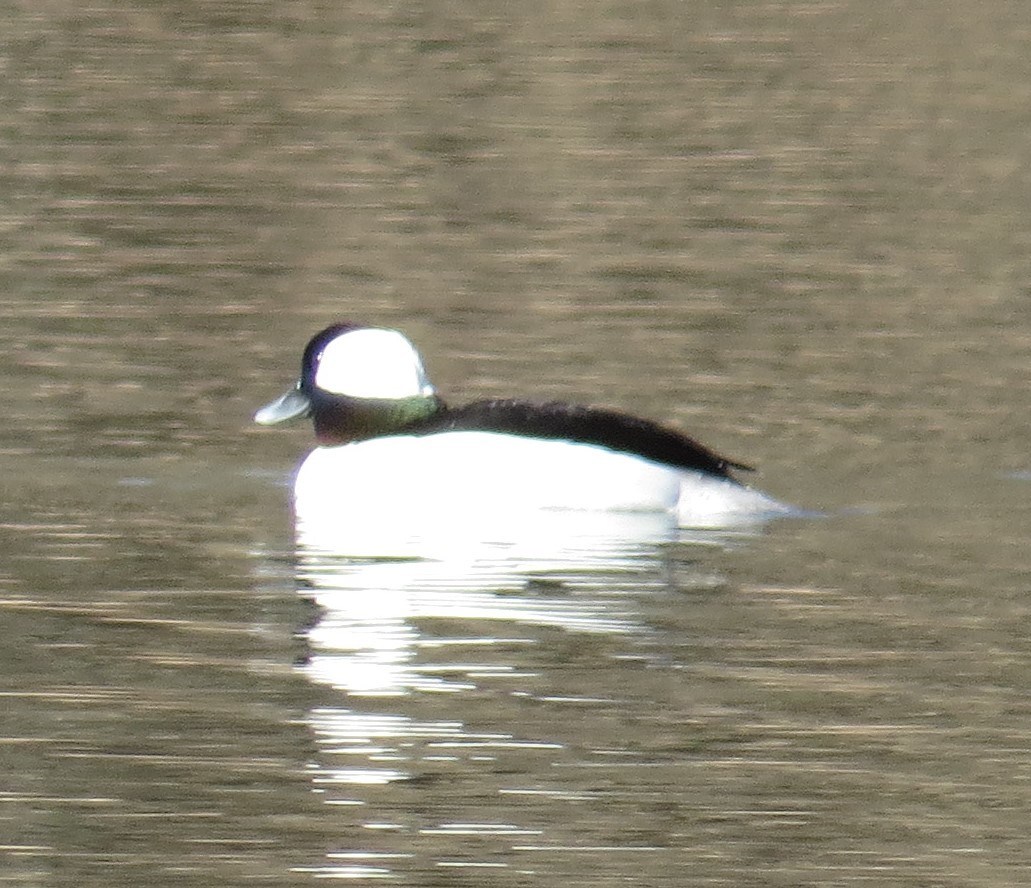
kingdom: Animalia
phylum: Chordata
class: Aves
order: Anseriformes
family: Anatidae
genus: Bucephala
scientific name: Bucephala albeola
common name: Bufflehead
